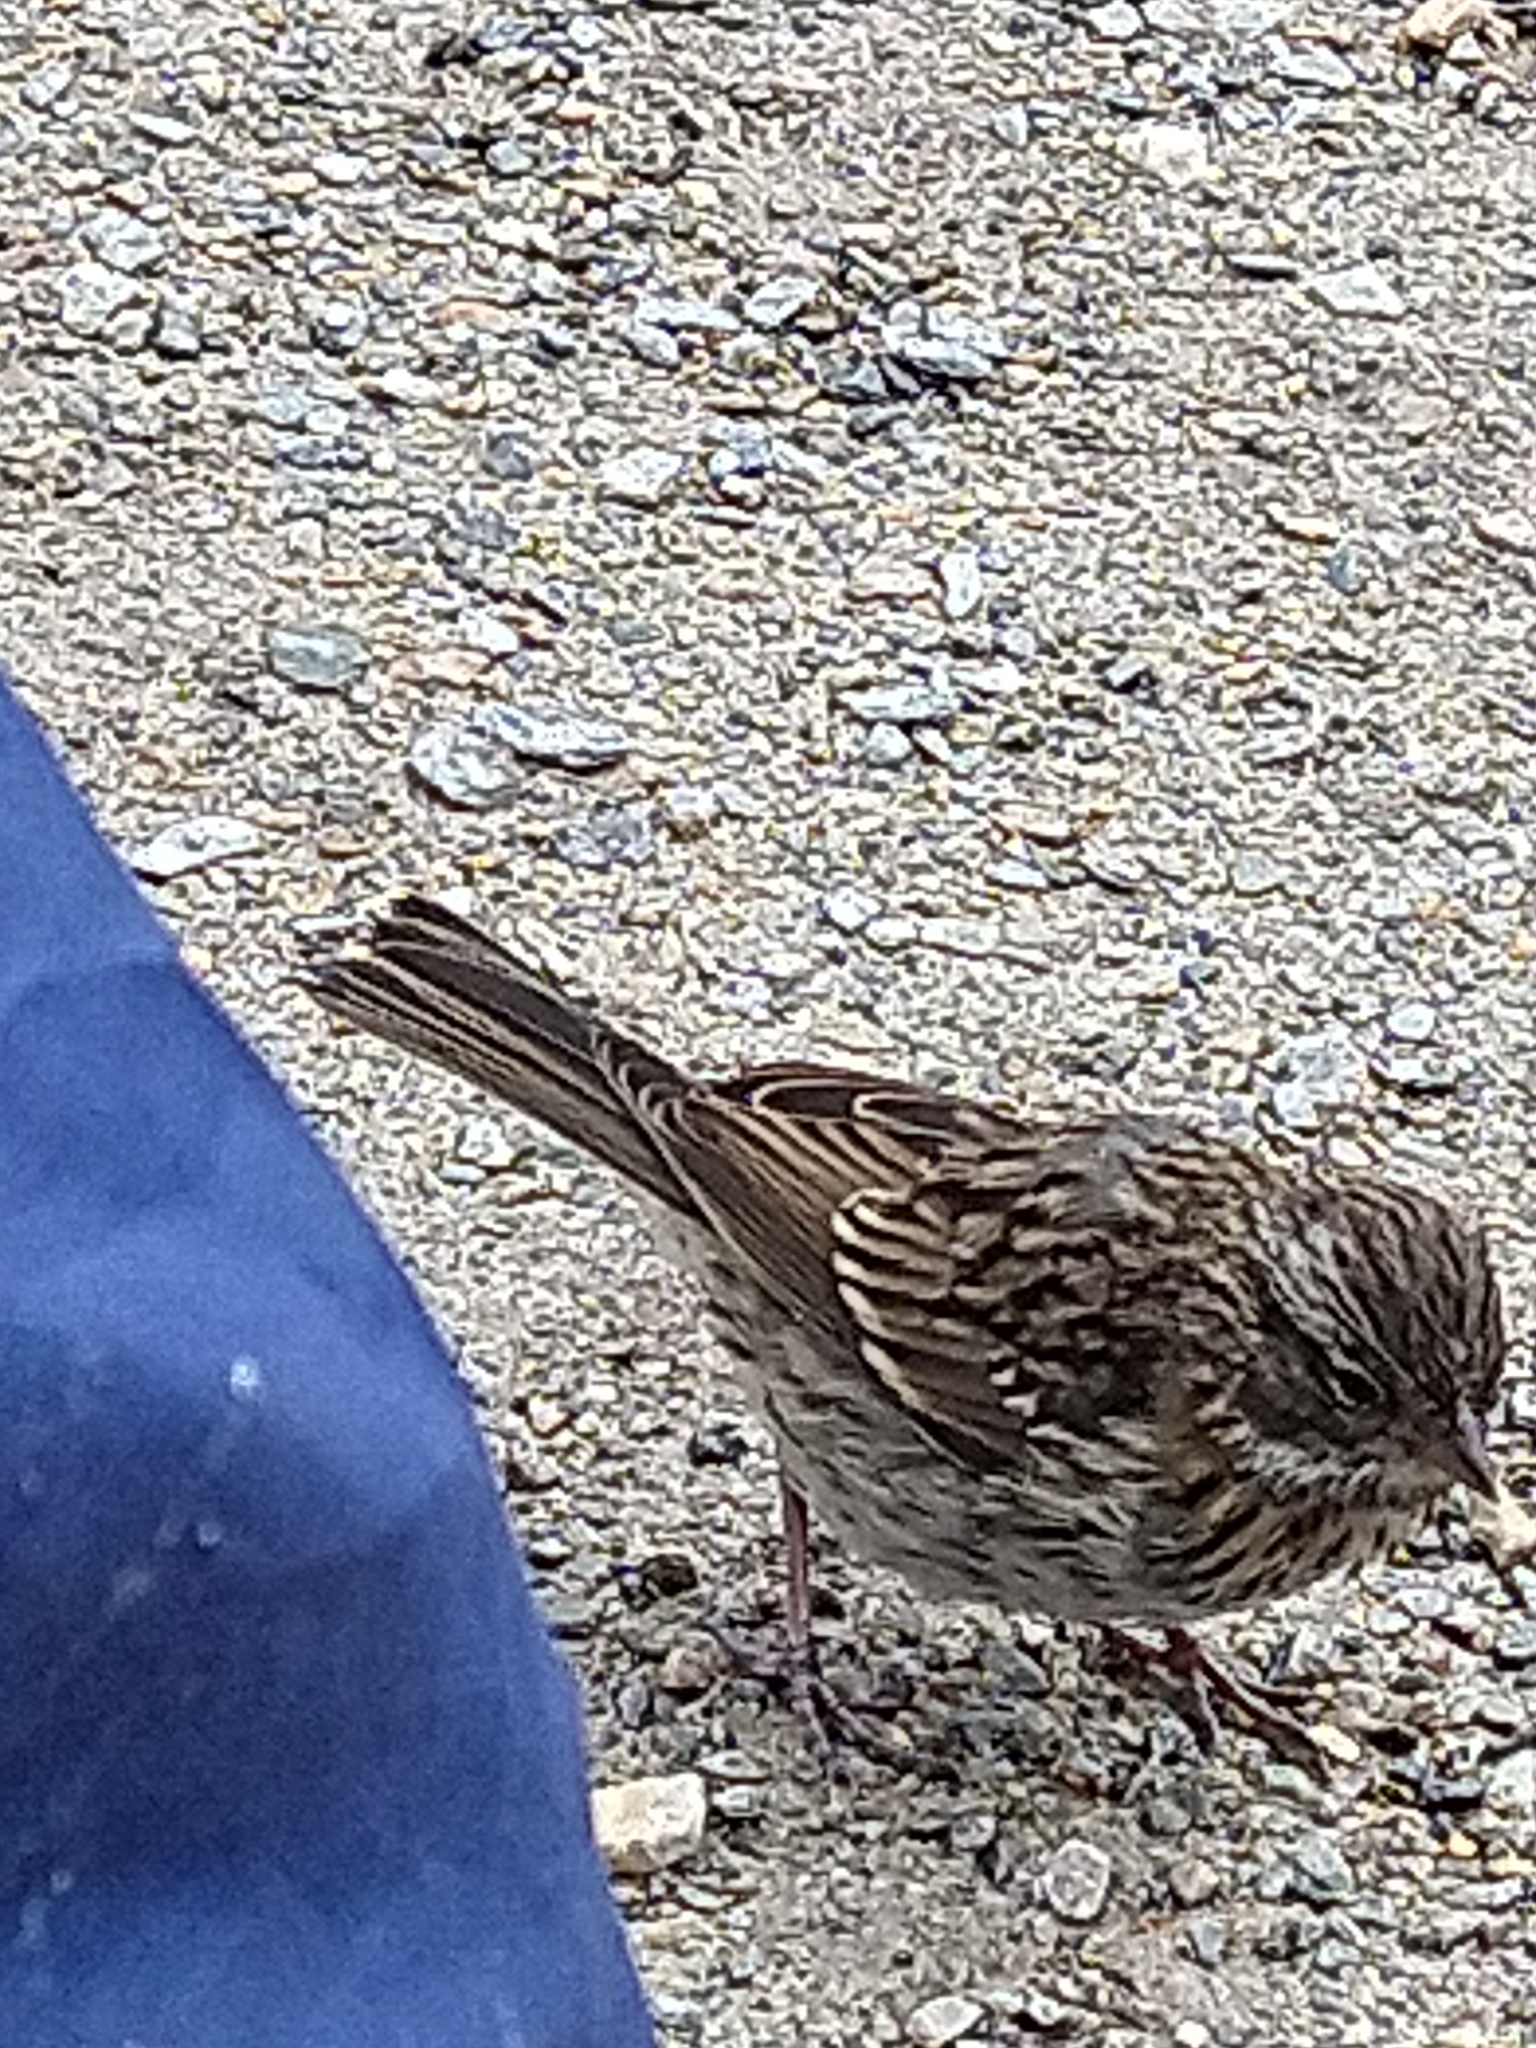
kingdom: Animalia
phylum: Chordata
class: Aves
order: Passeriformes
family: Passerellidae
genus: Zonotrichia
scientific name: Zonotrichia capensis
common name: Rufous-collared sparrow
